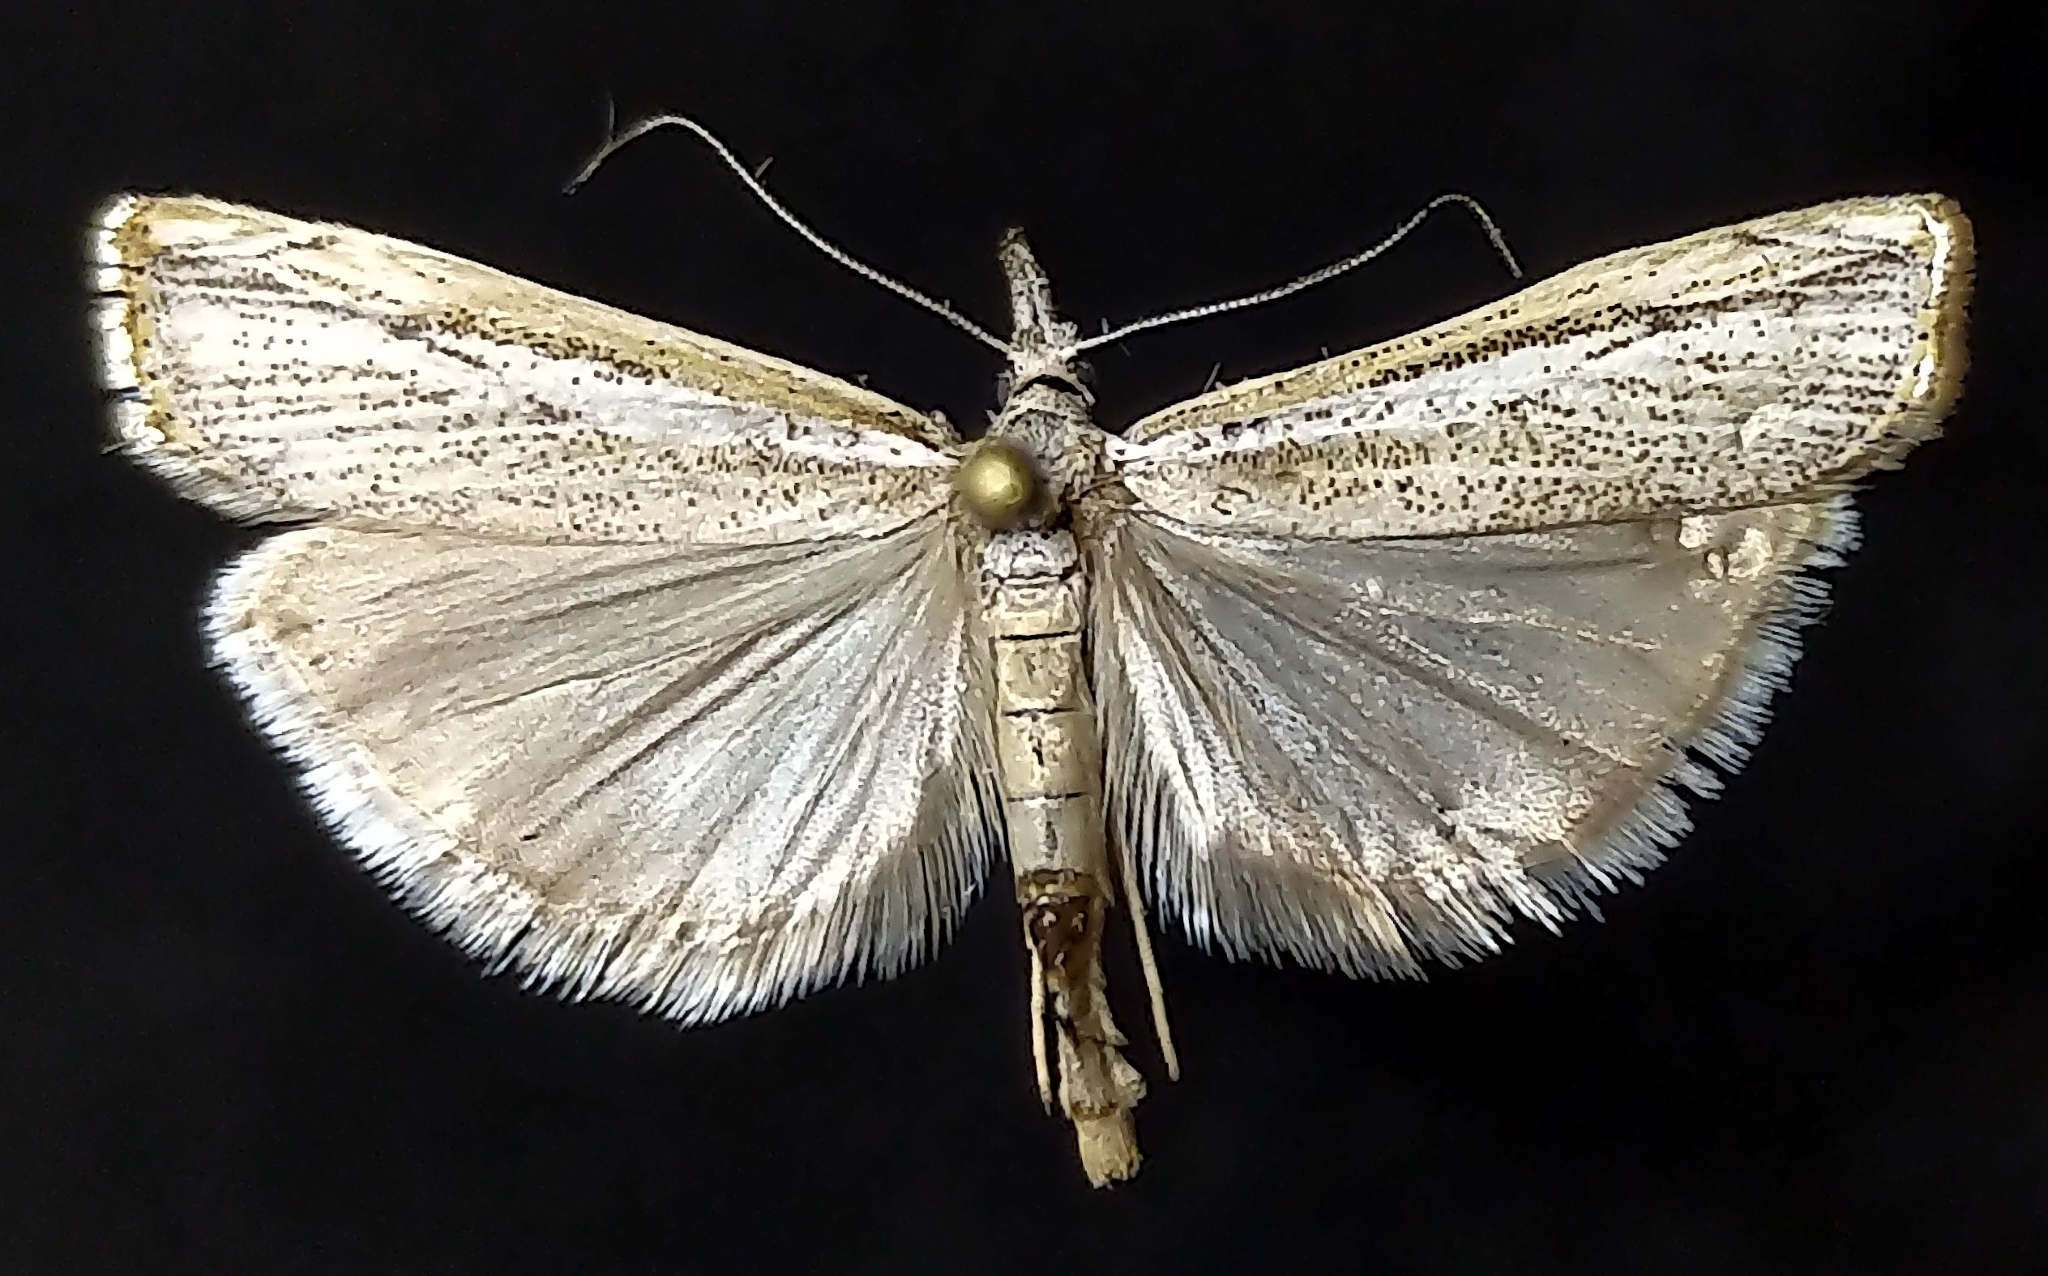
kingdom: Animalia
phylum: Arthropoda
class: Insecta
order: Lepidoptera
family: Crambidae
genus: Agriphila
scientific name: Agriphila attenuatus
